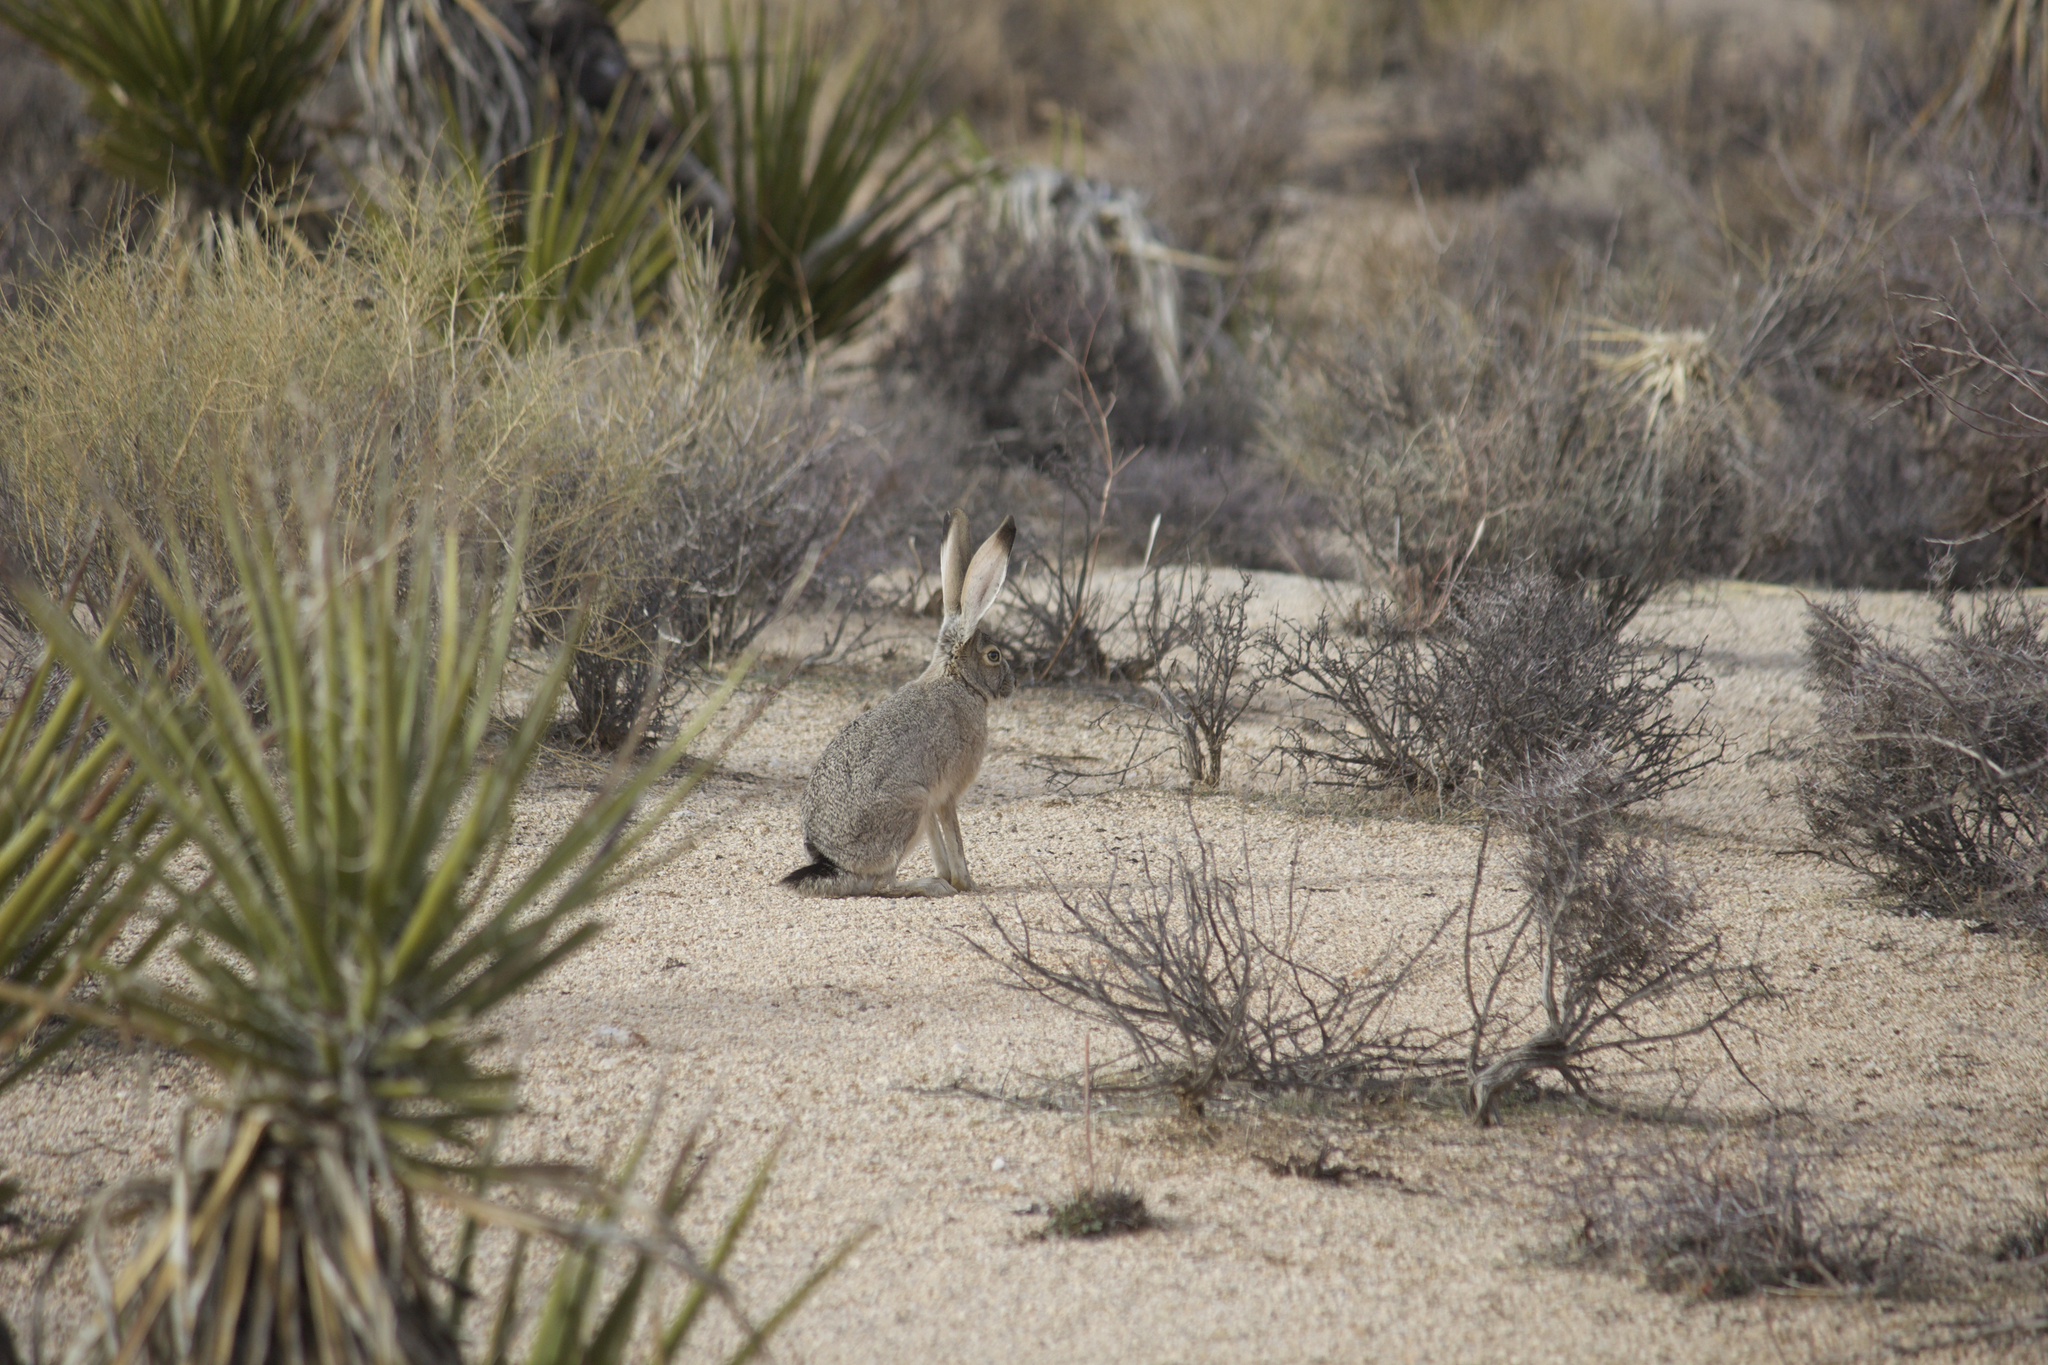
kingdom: Animalia
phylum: Chordata
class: Mammalia
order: Lagomorpha
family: Leporidae
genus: Lepus
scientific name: Lepus californicus
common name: Black-tailed jackrabbit
